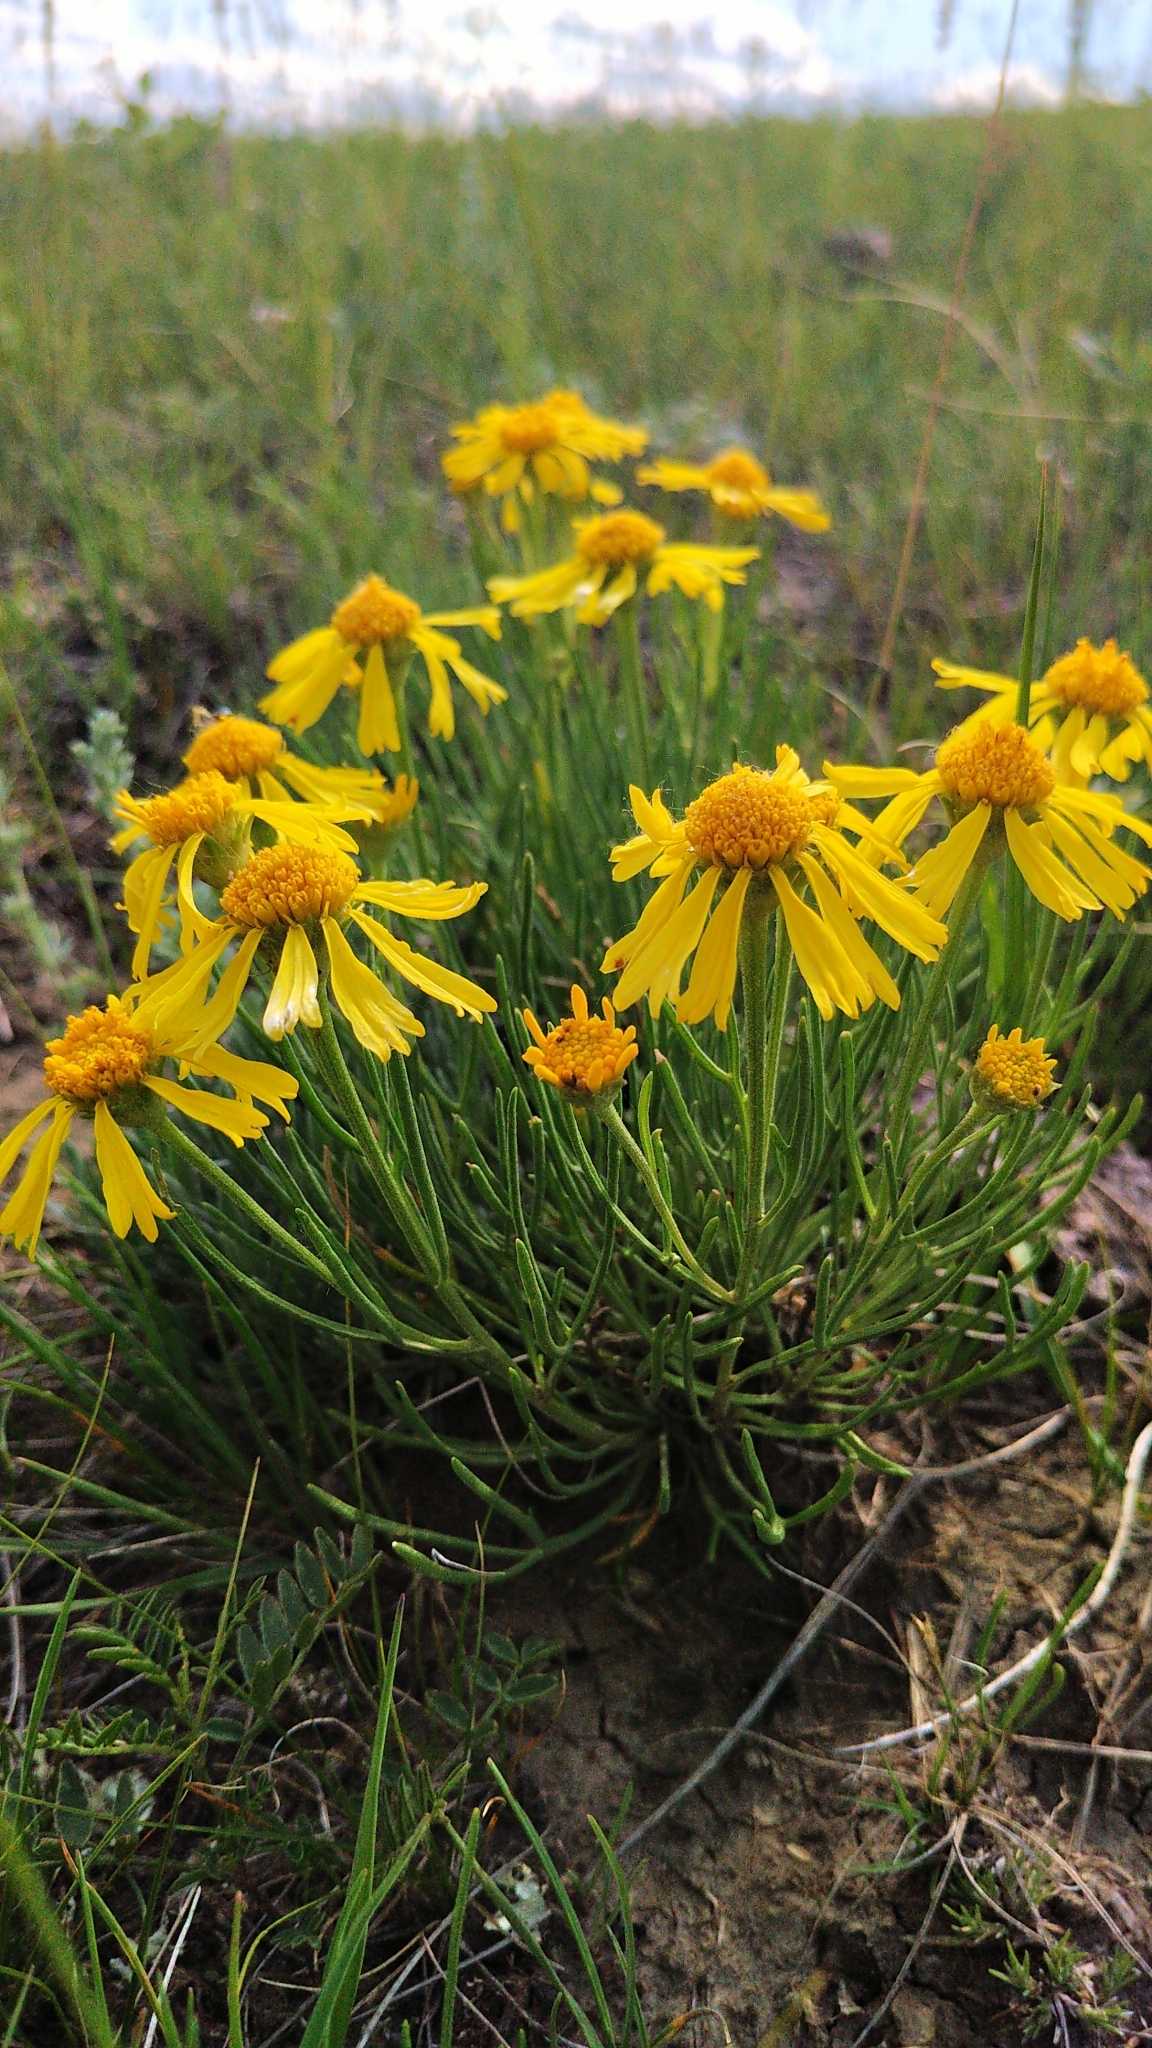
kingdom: Plantae
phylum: Tracheophyta
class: Magnoliopsida
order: Asterales
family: Asteraceae
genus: Hymenoxys
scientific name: Hymenoxys richardsonii
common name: Pingue rubberweed
